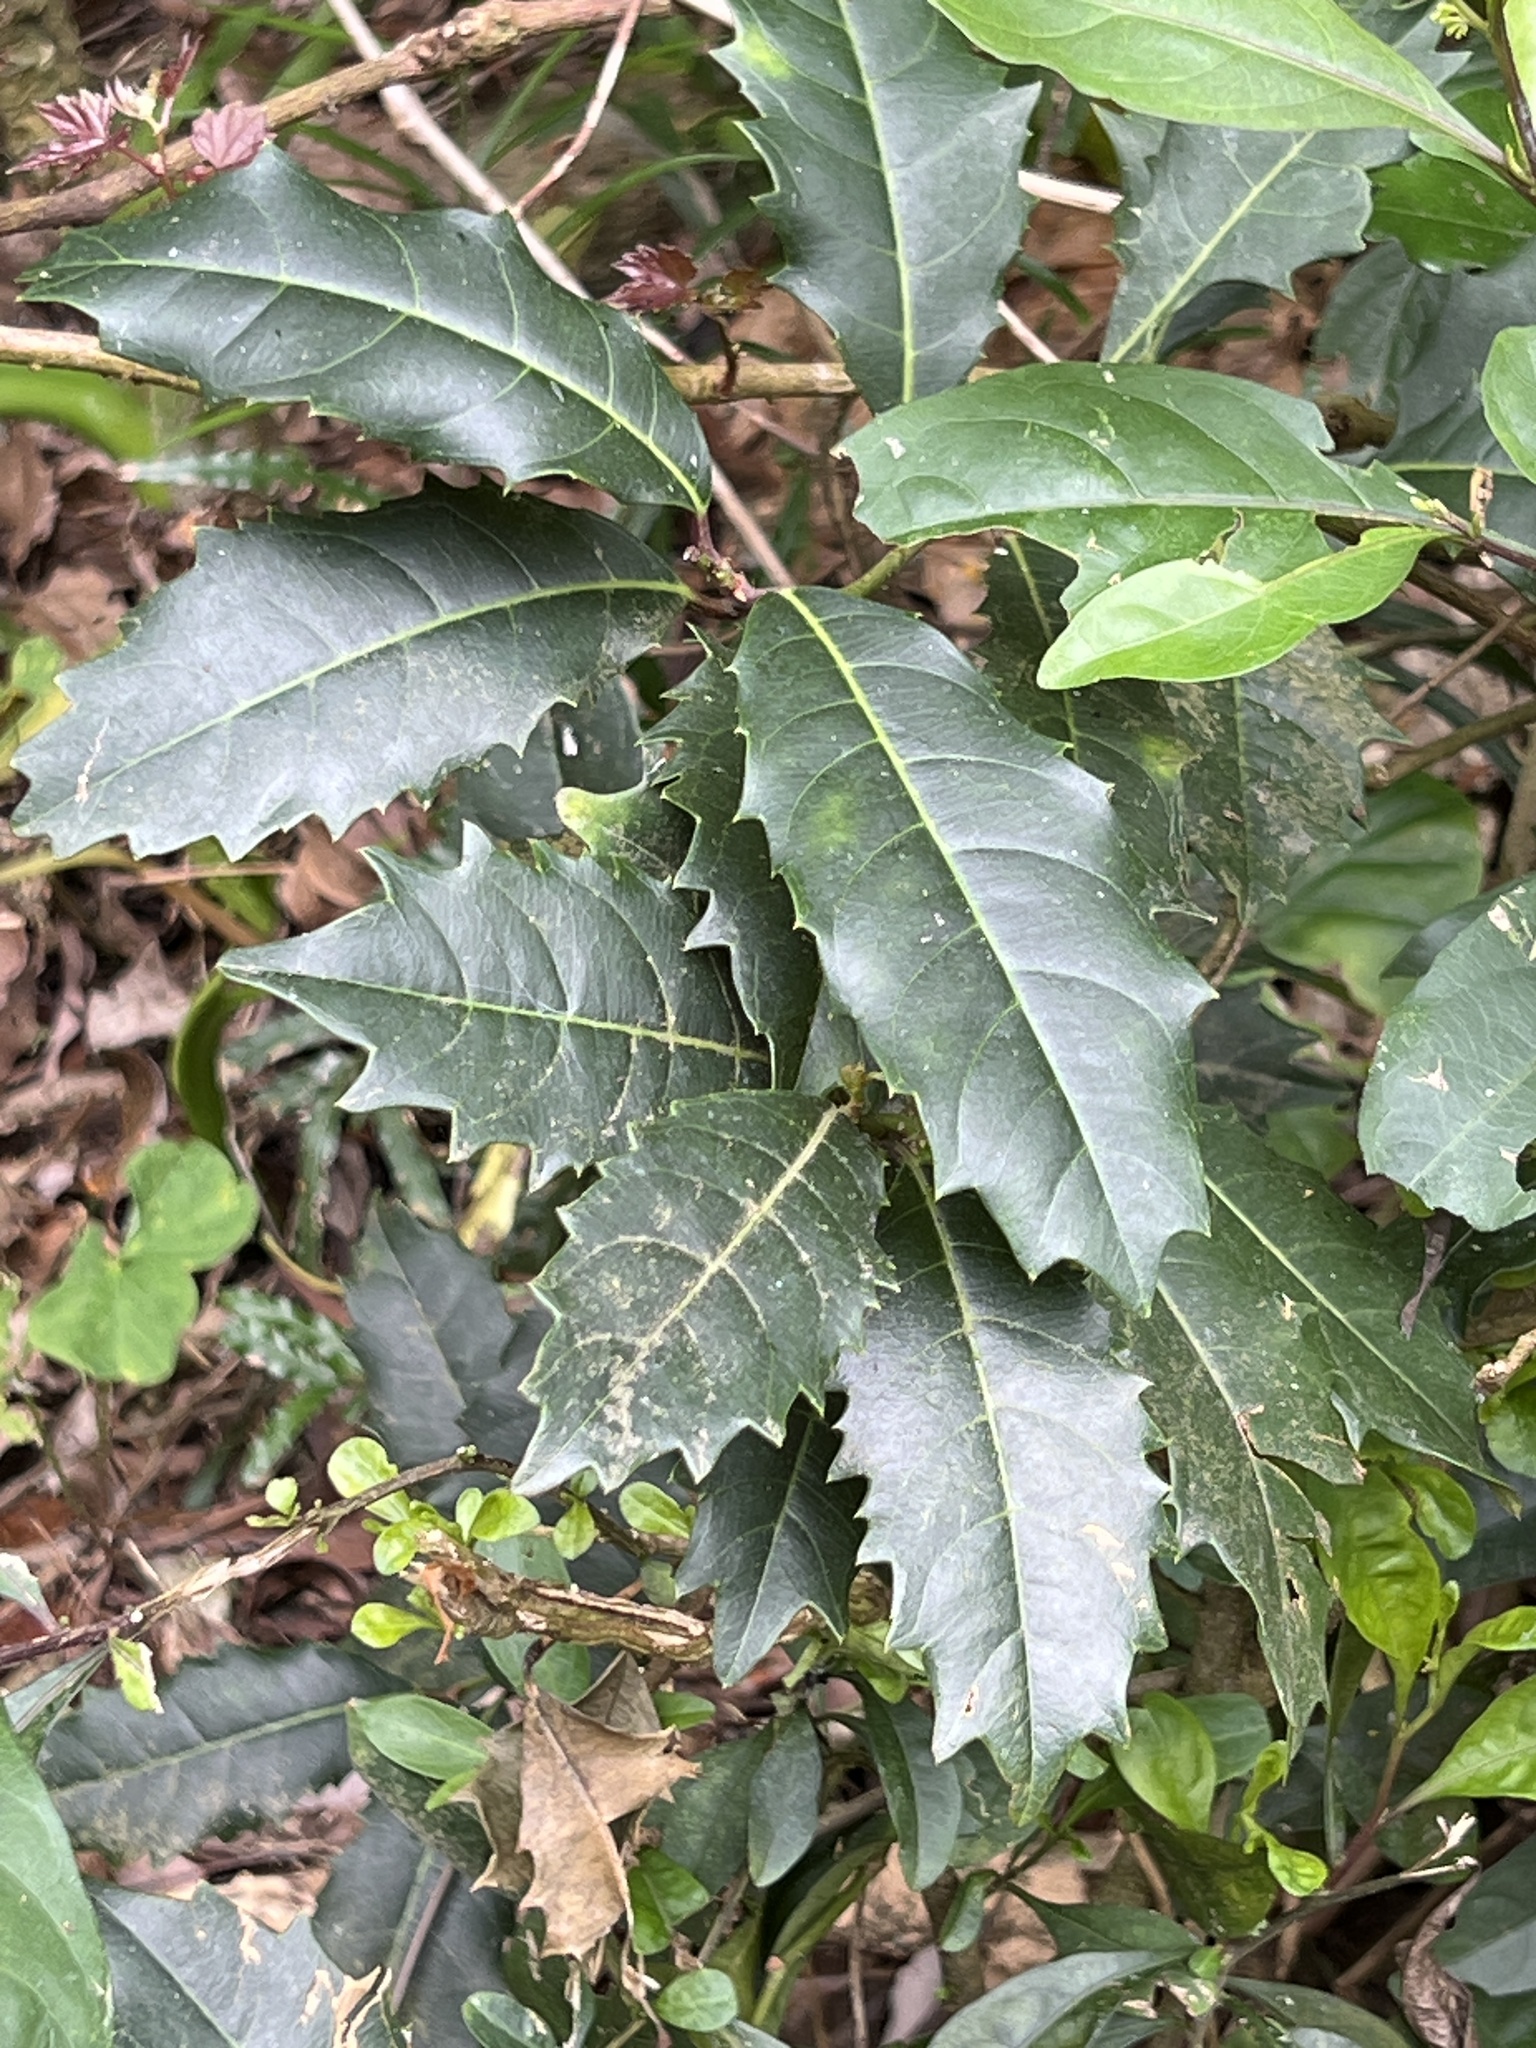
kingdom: Plantae
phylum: Tracheophyta
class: Magnoliopsida
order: Saxifragales
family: Iteaceae
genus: Itea
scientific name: Itea oldhamii
